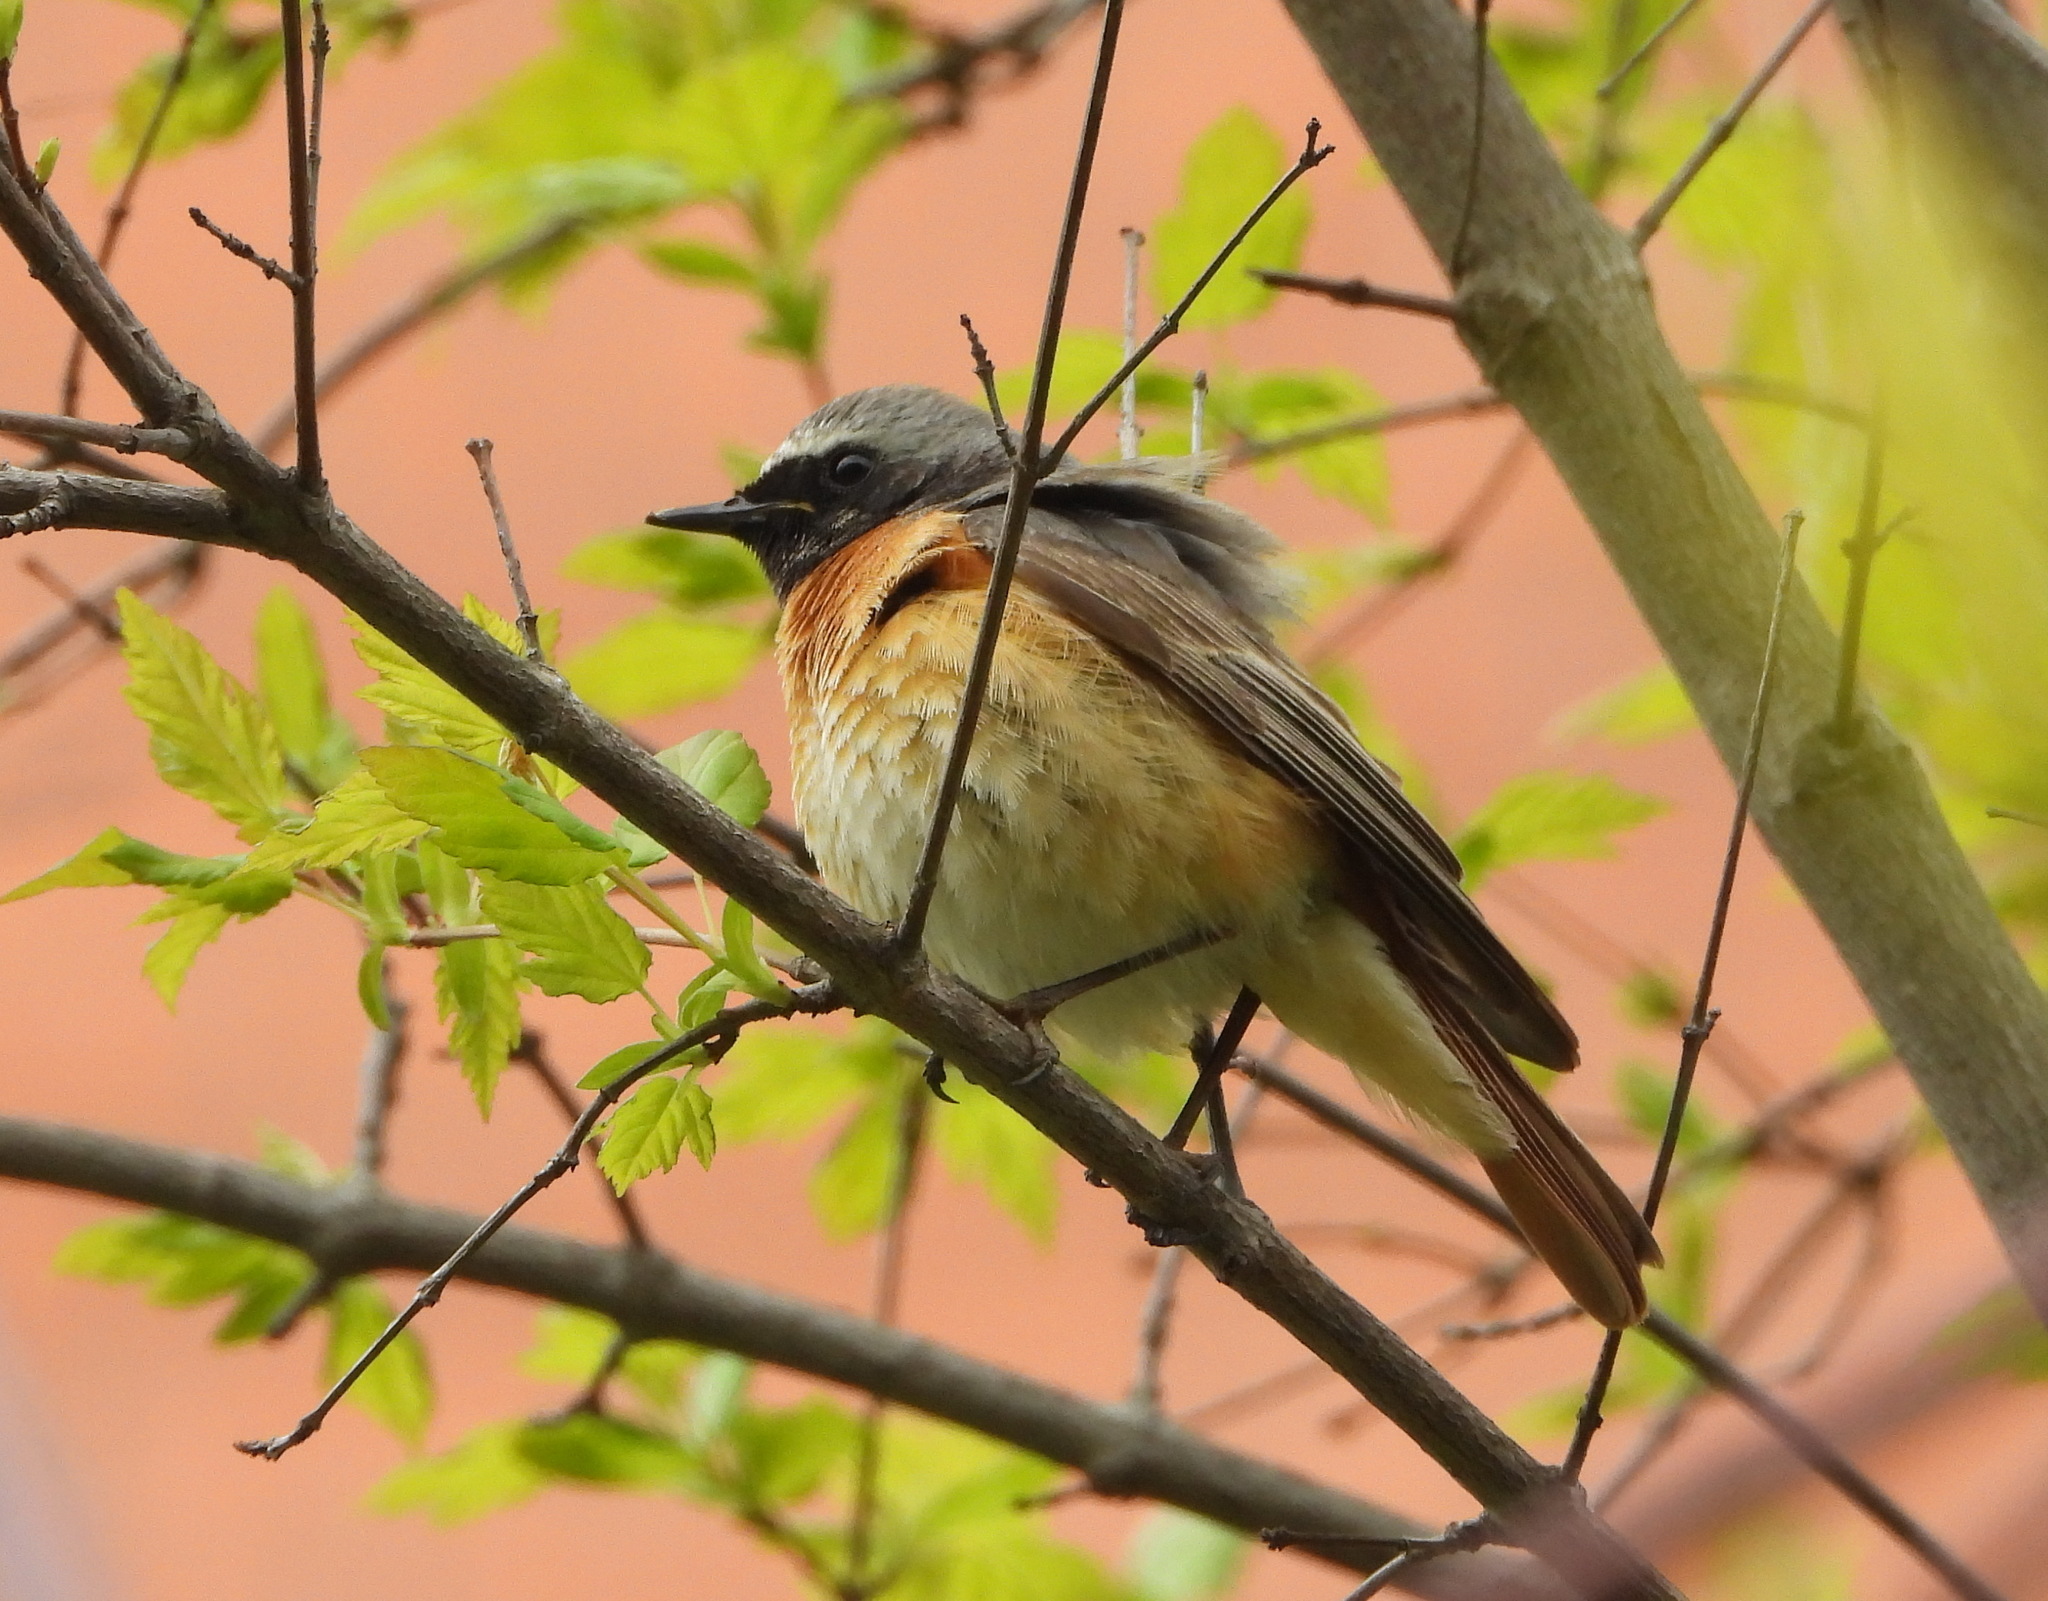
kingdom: Animalia
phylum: Chordata
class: Aves
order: Passeriformes
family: Muscicapidae
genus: Phoenicurus
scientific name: Phoenicurus phoenicurus
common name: Common redstart
